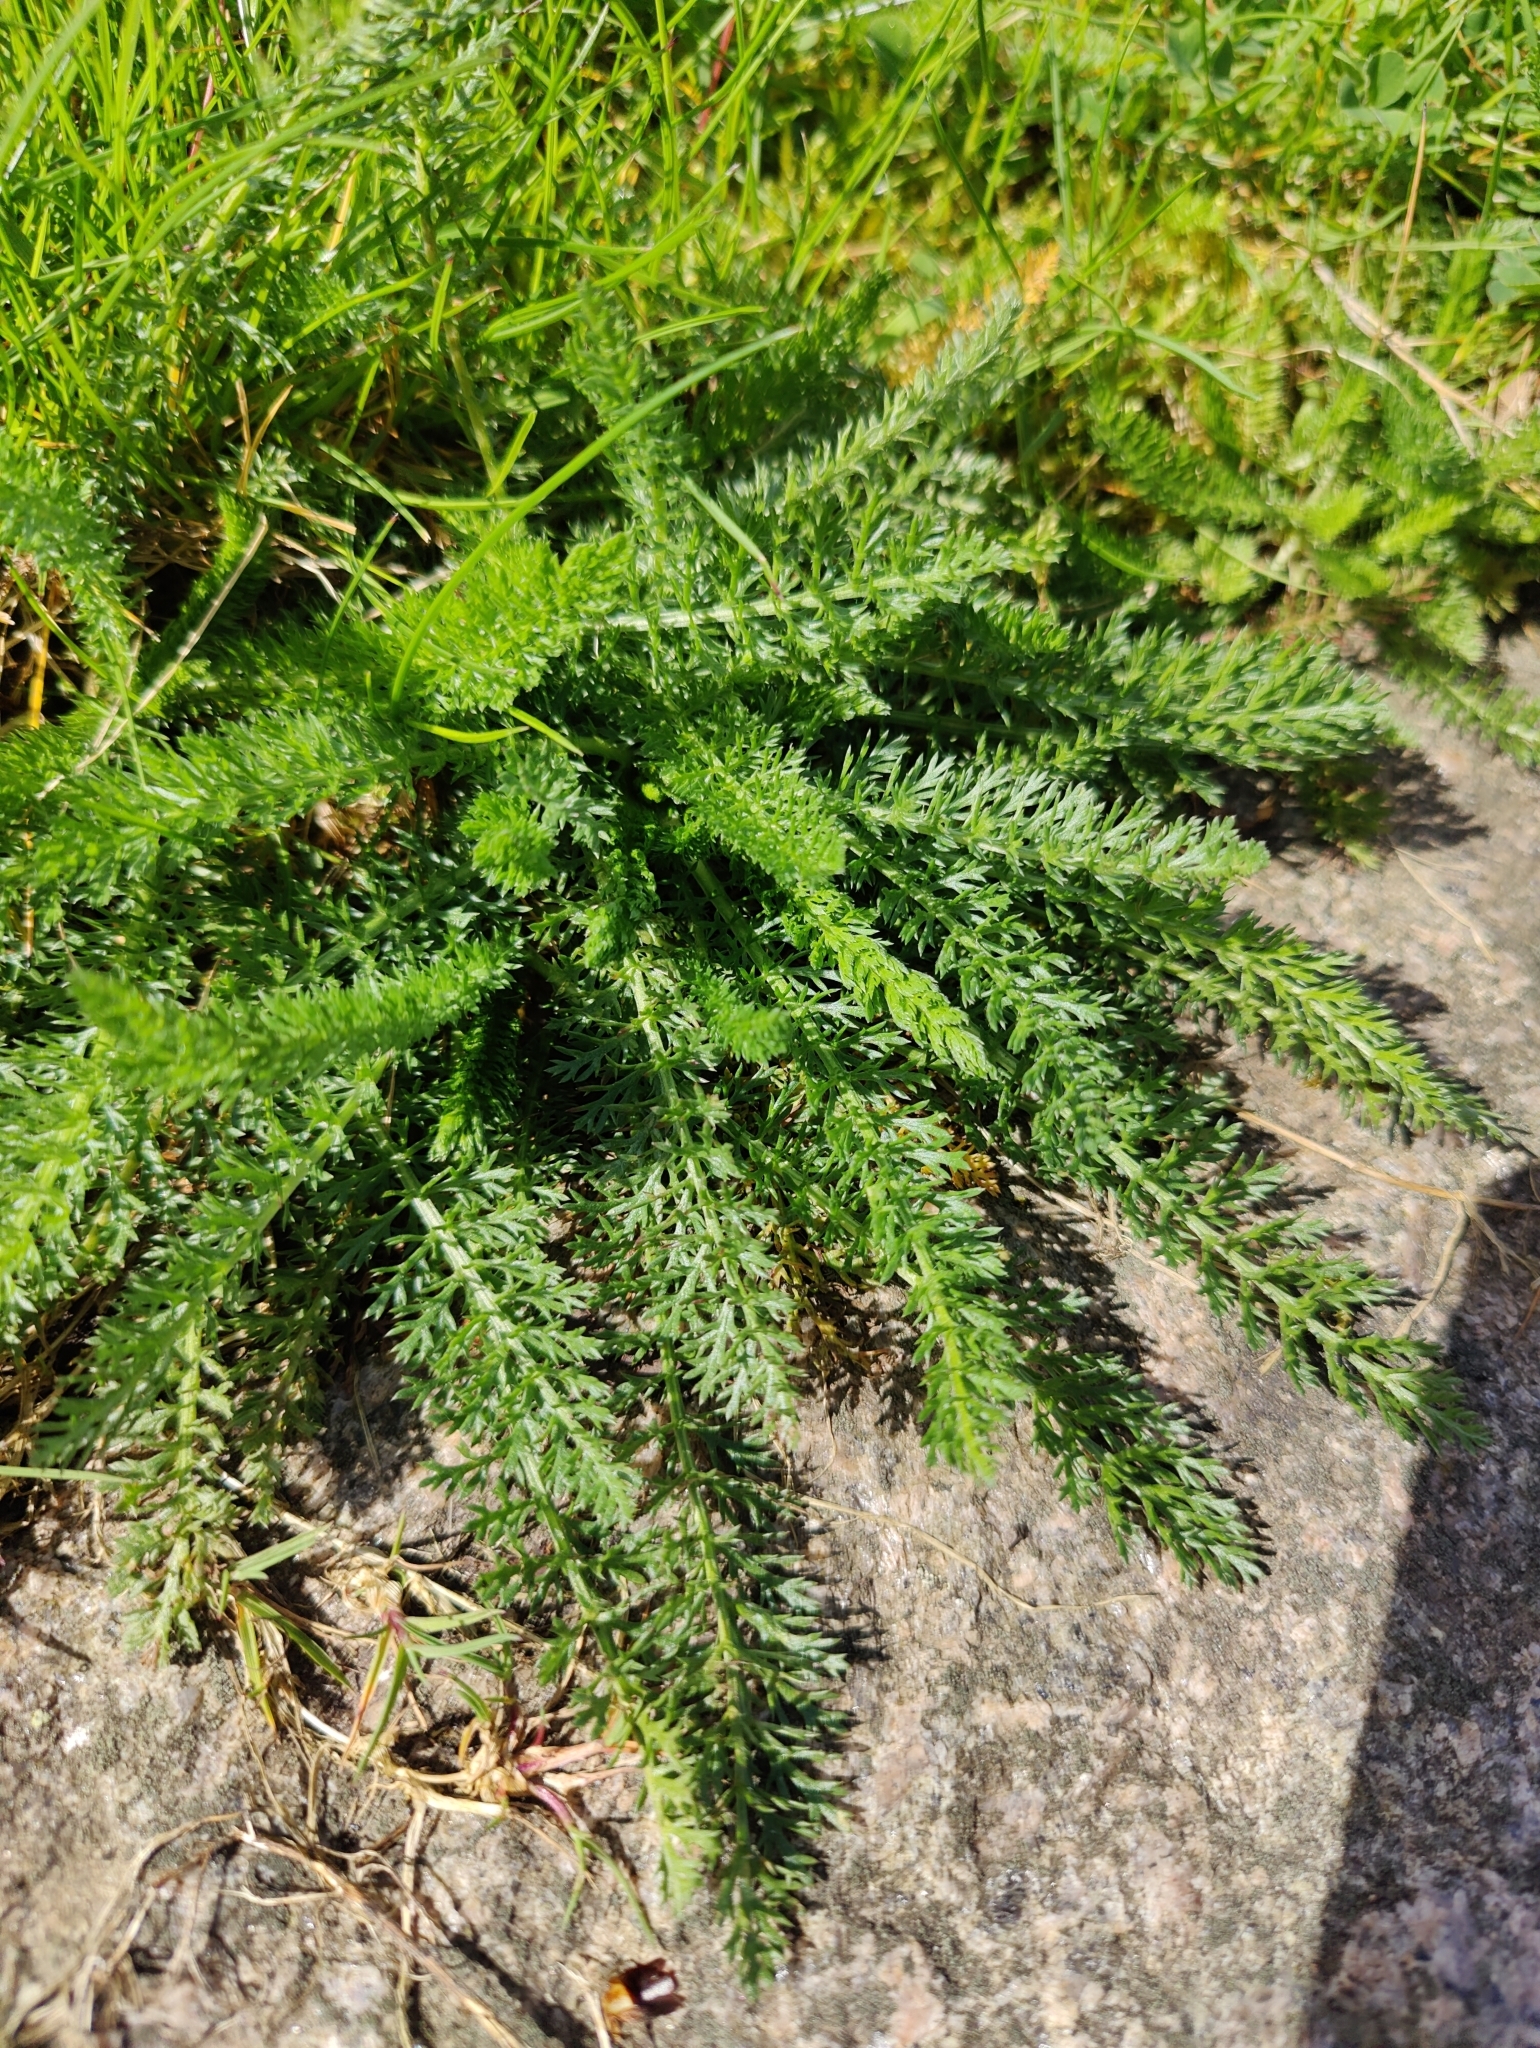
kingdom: Plantae
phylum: Tracheophyta
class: Magnoliopsida
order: Asterales
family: Asteraceae
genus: Achillea
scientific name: Achillea millefolium
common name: Yarrow
